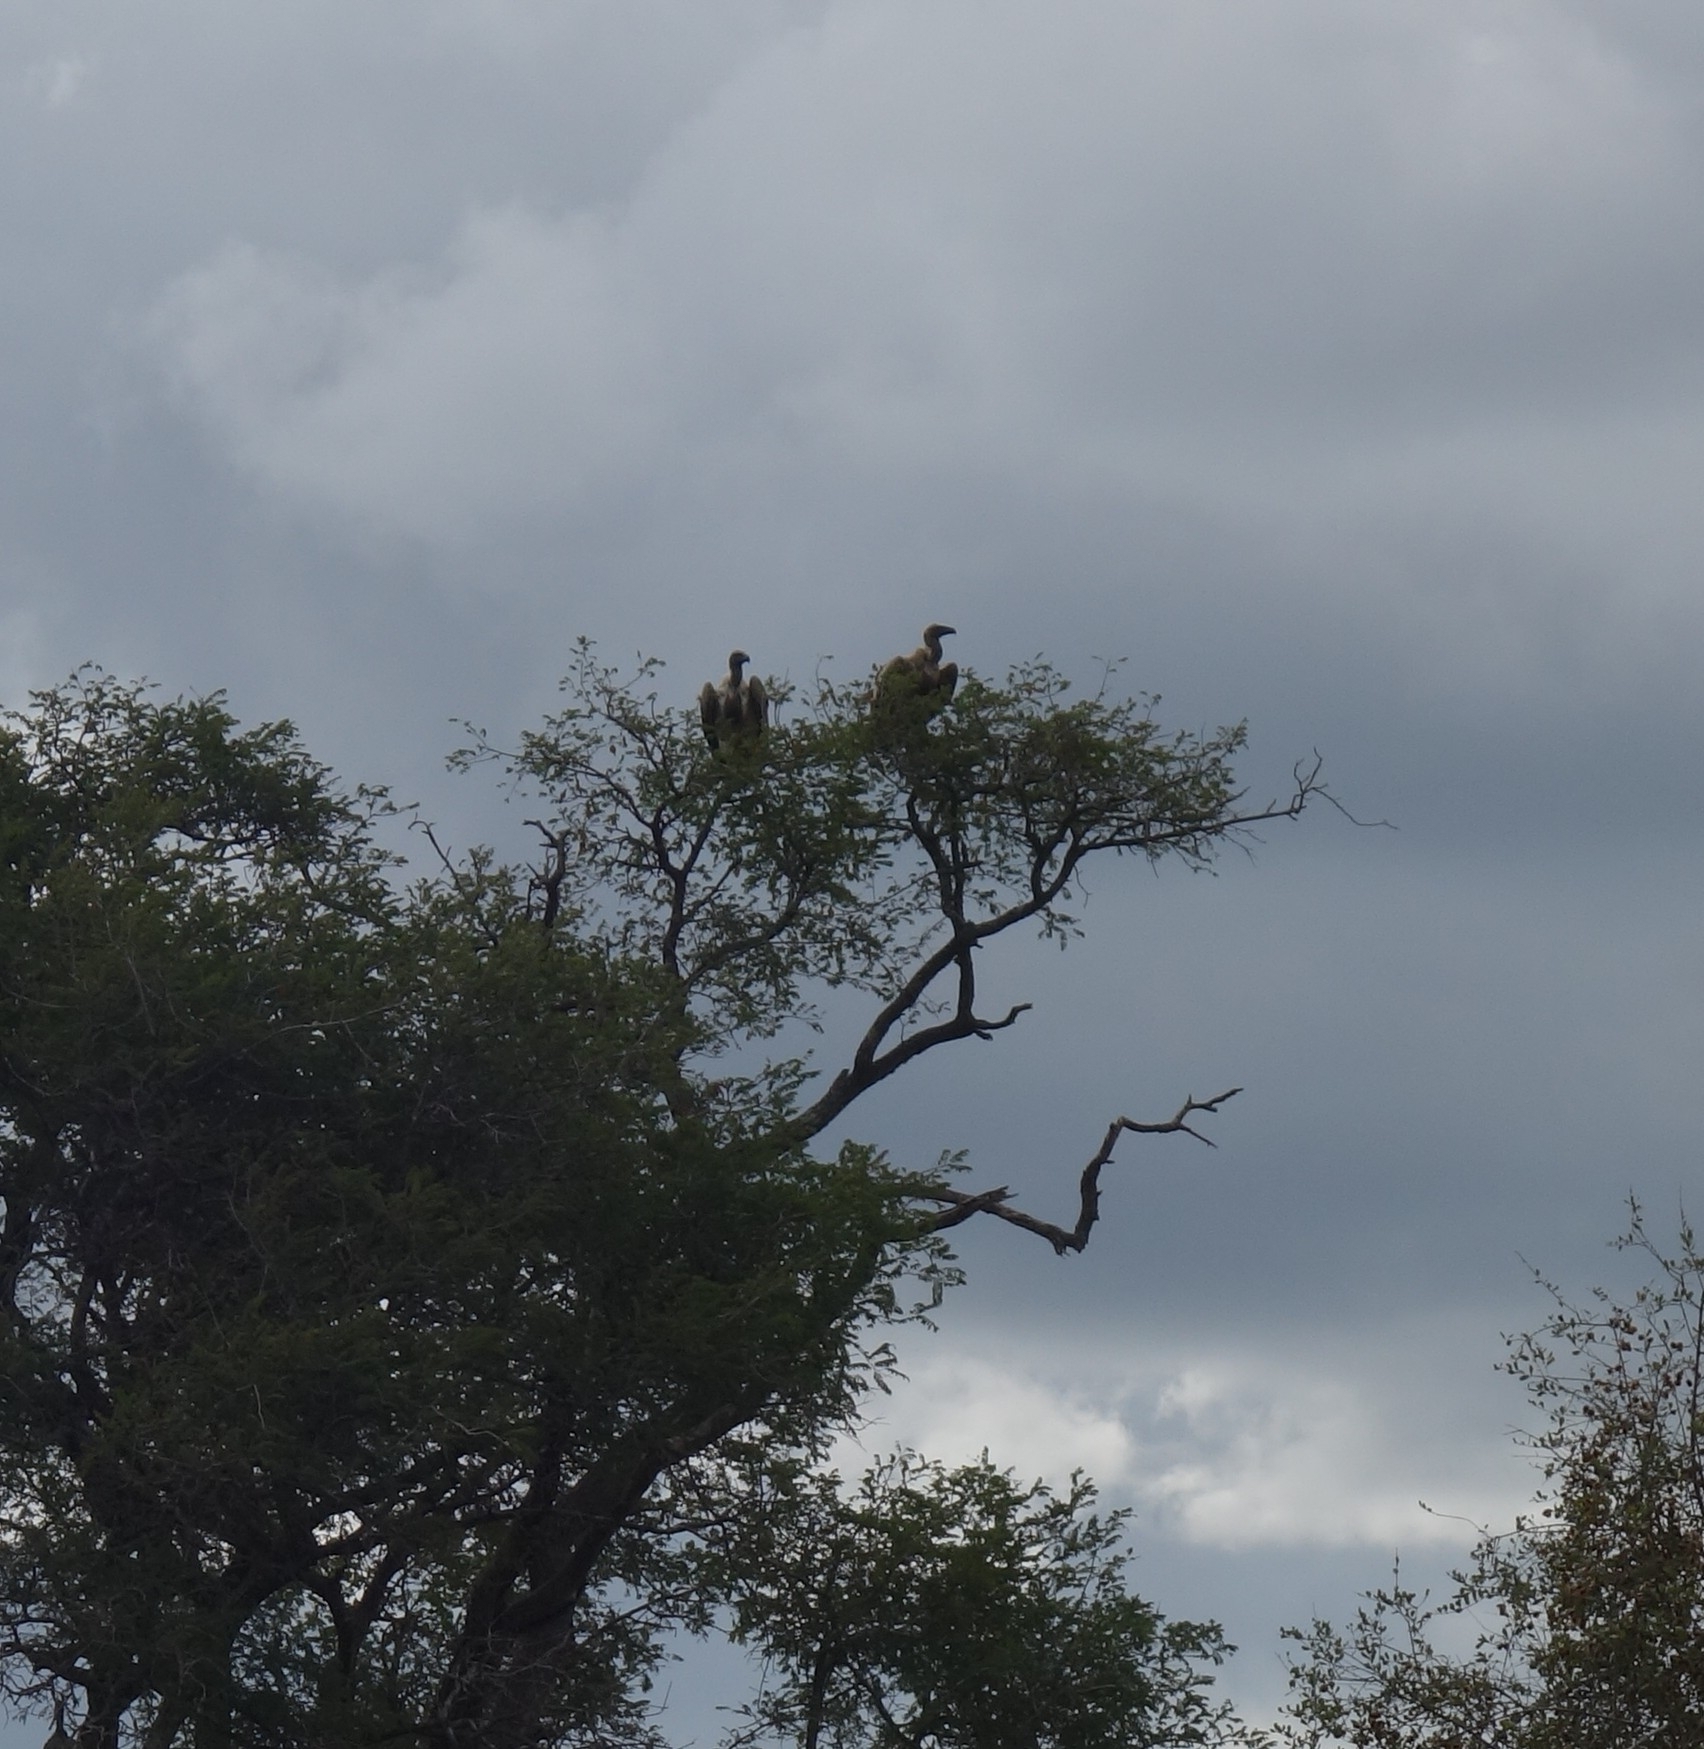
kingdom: Animalia
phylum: Chordata
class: Aves
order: Accipitriformes
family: Accipitridae
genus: Gyps
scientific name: Gyps africanus
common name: White-backed vulture
